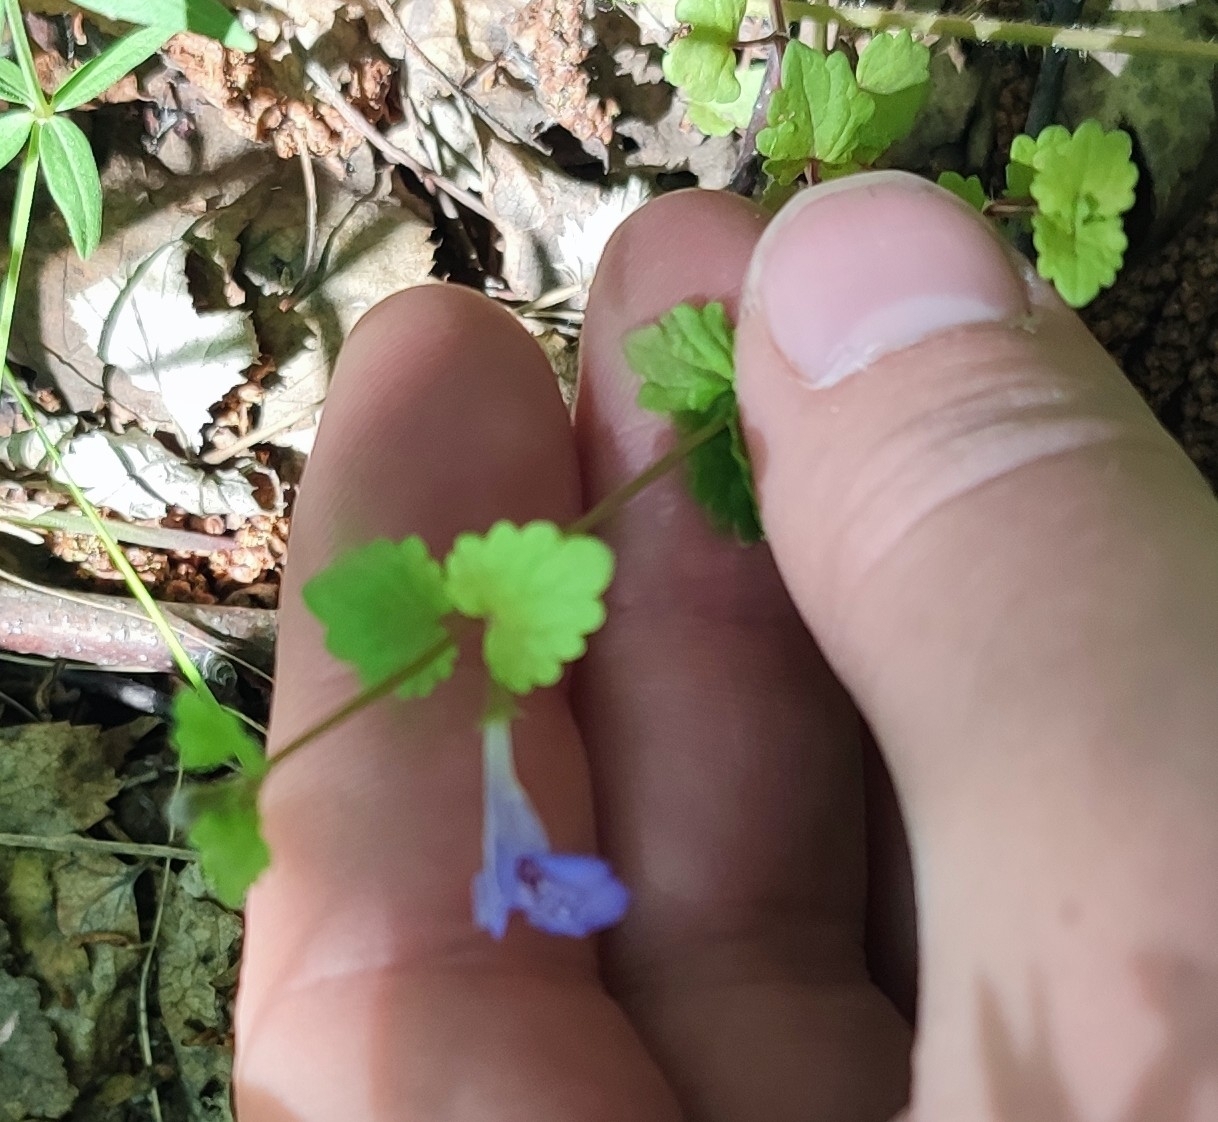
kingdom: Plantae
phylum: Tracheophyta
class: Magnoliopsida
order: Lamiales
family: Lamiaceae
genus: Glechoma
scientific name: Glechoma hederacea
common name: Ground ivy
